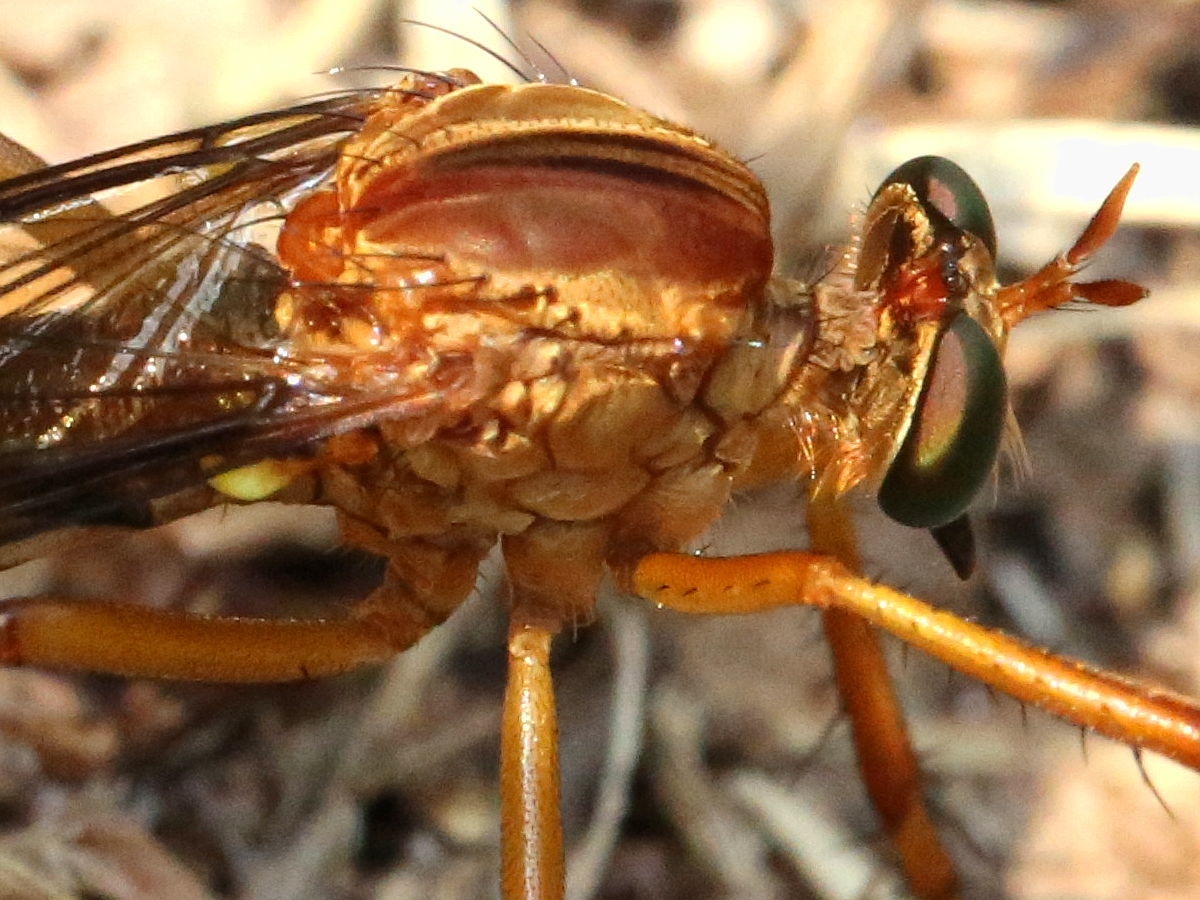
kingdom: Animalia
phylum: Arthropoda
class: Insecta
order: Diptera
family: Asilidae
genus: Diogmites
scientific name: Diogmites discolor
